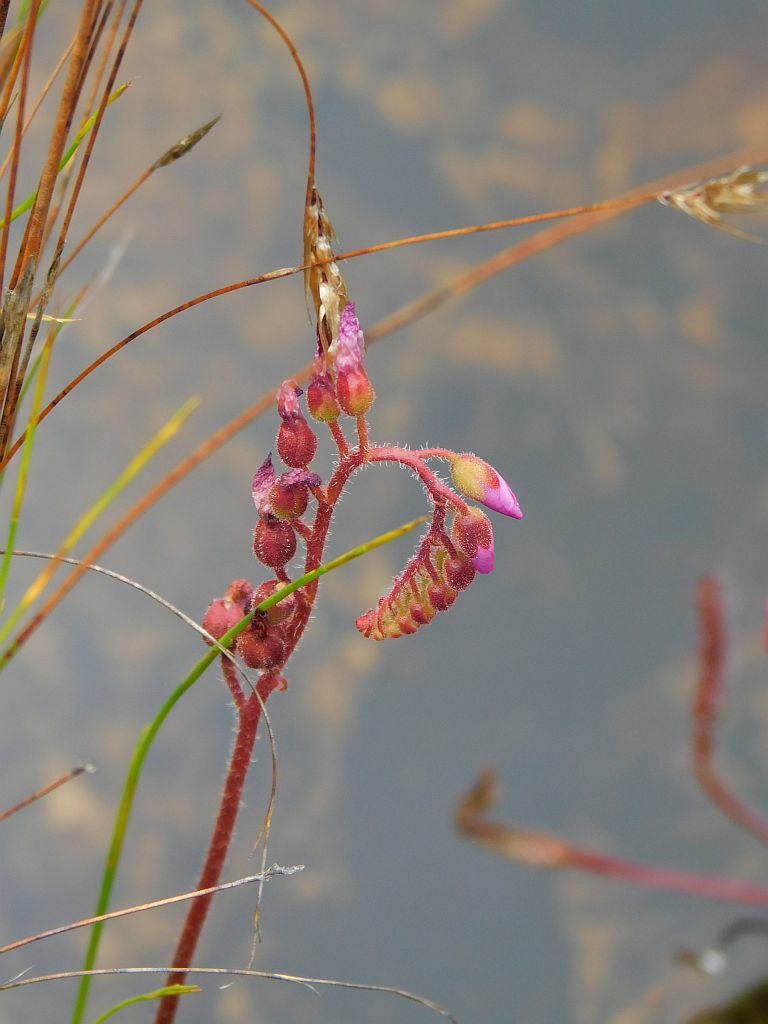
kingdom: Plantae
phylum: Tracheophyta
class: Magnoliopsida
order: Caryophyllales
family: Droseraceae
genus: Drosera
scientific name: Drosera capensis
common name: Cape sundew
